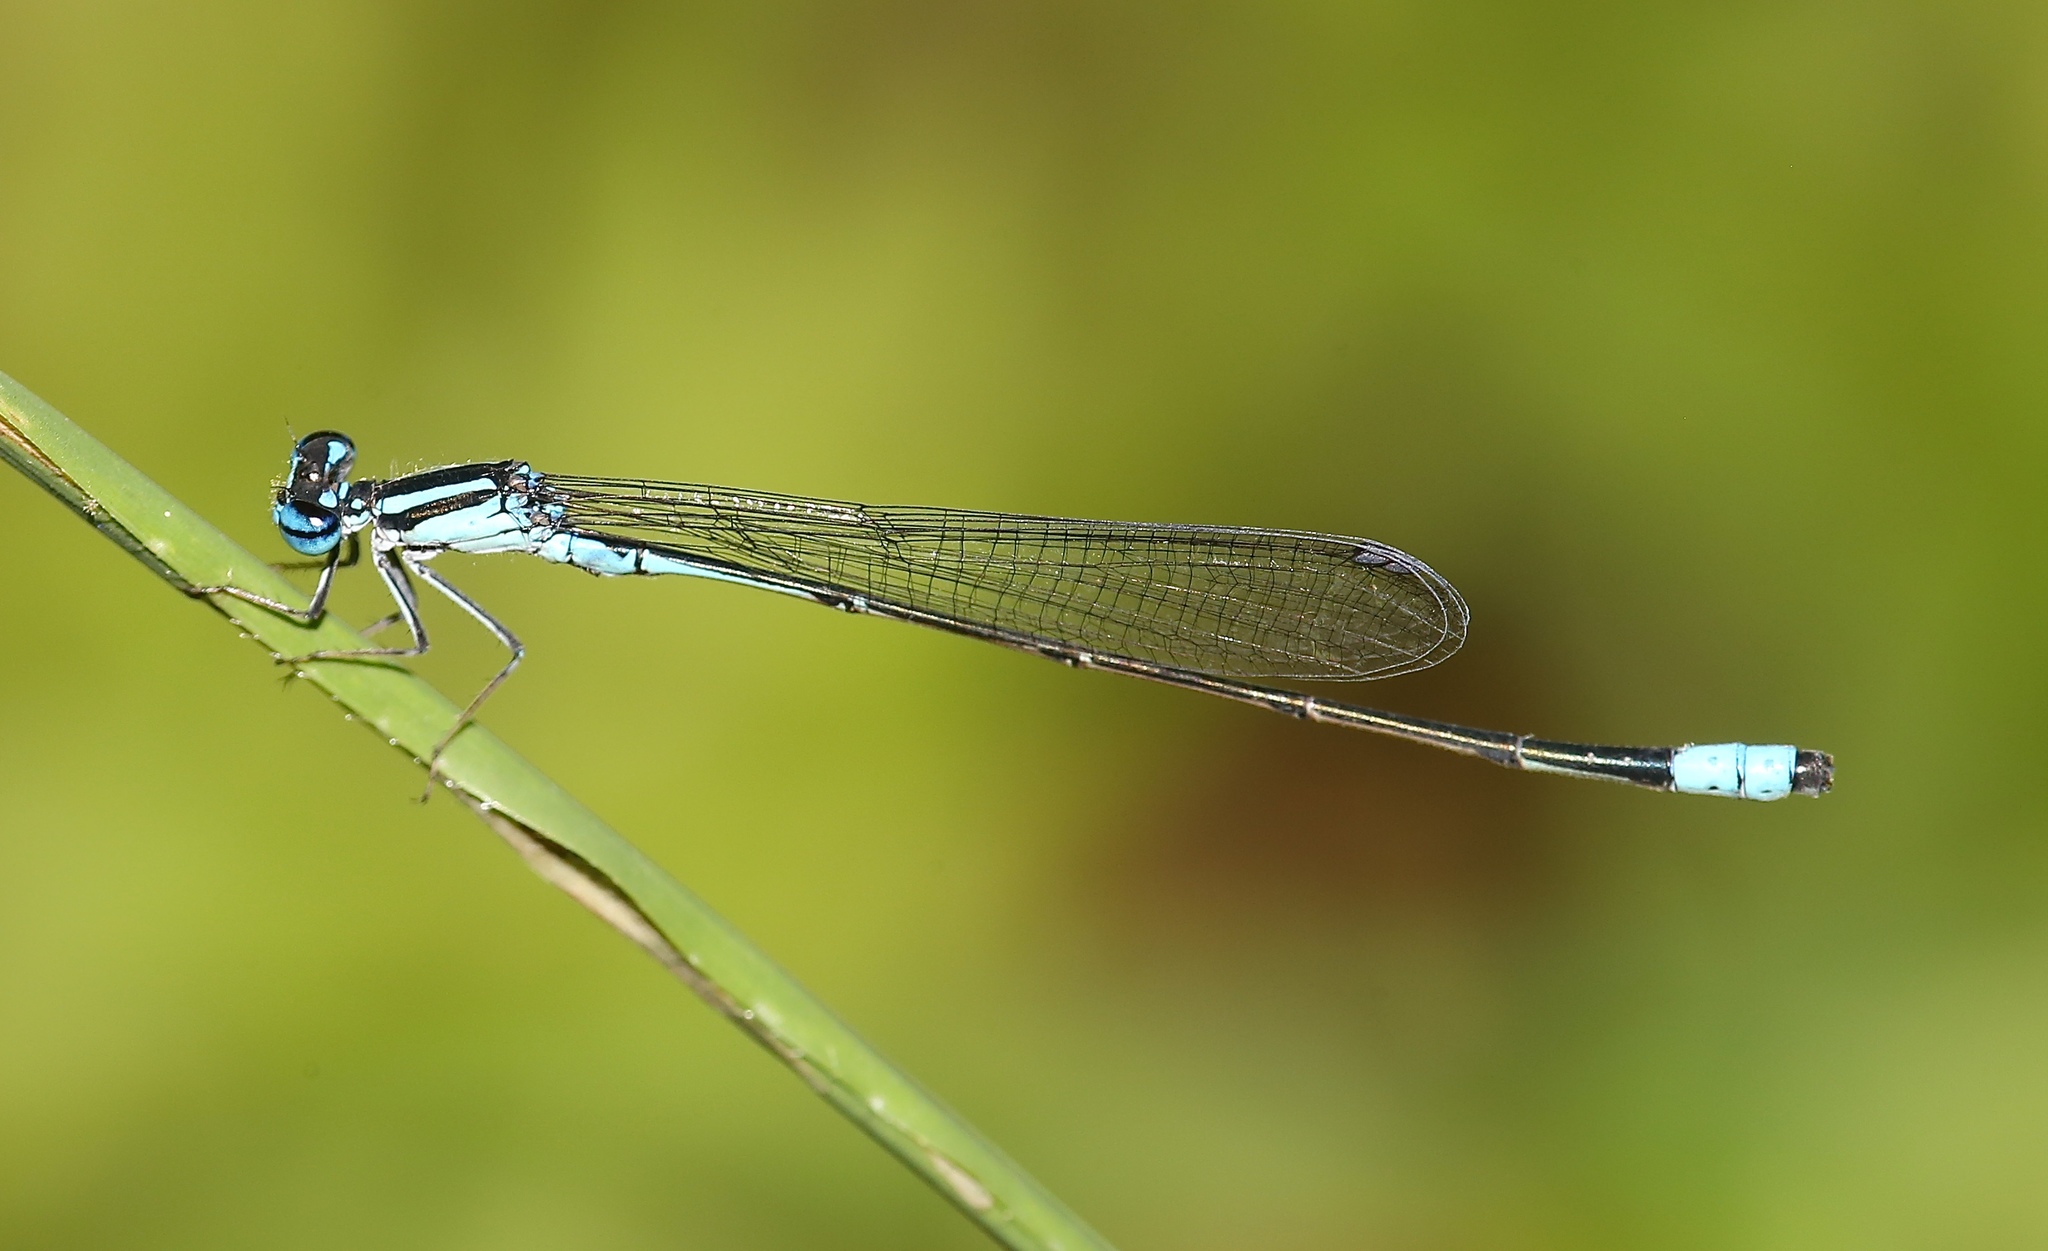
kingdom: Animalia
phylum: Arthropoda
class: Insecta
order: Odonata
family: Coenagrionidae
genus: Enallagma
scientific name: Enallagma divagans
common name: Turquoise bluet
